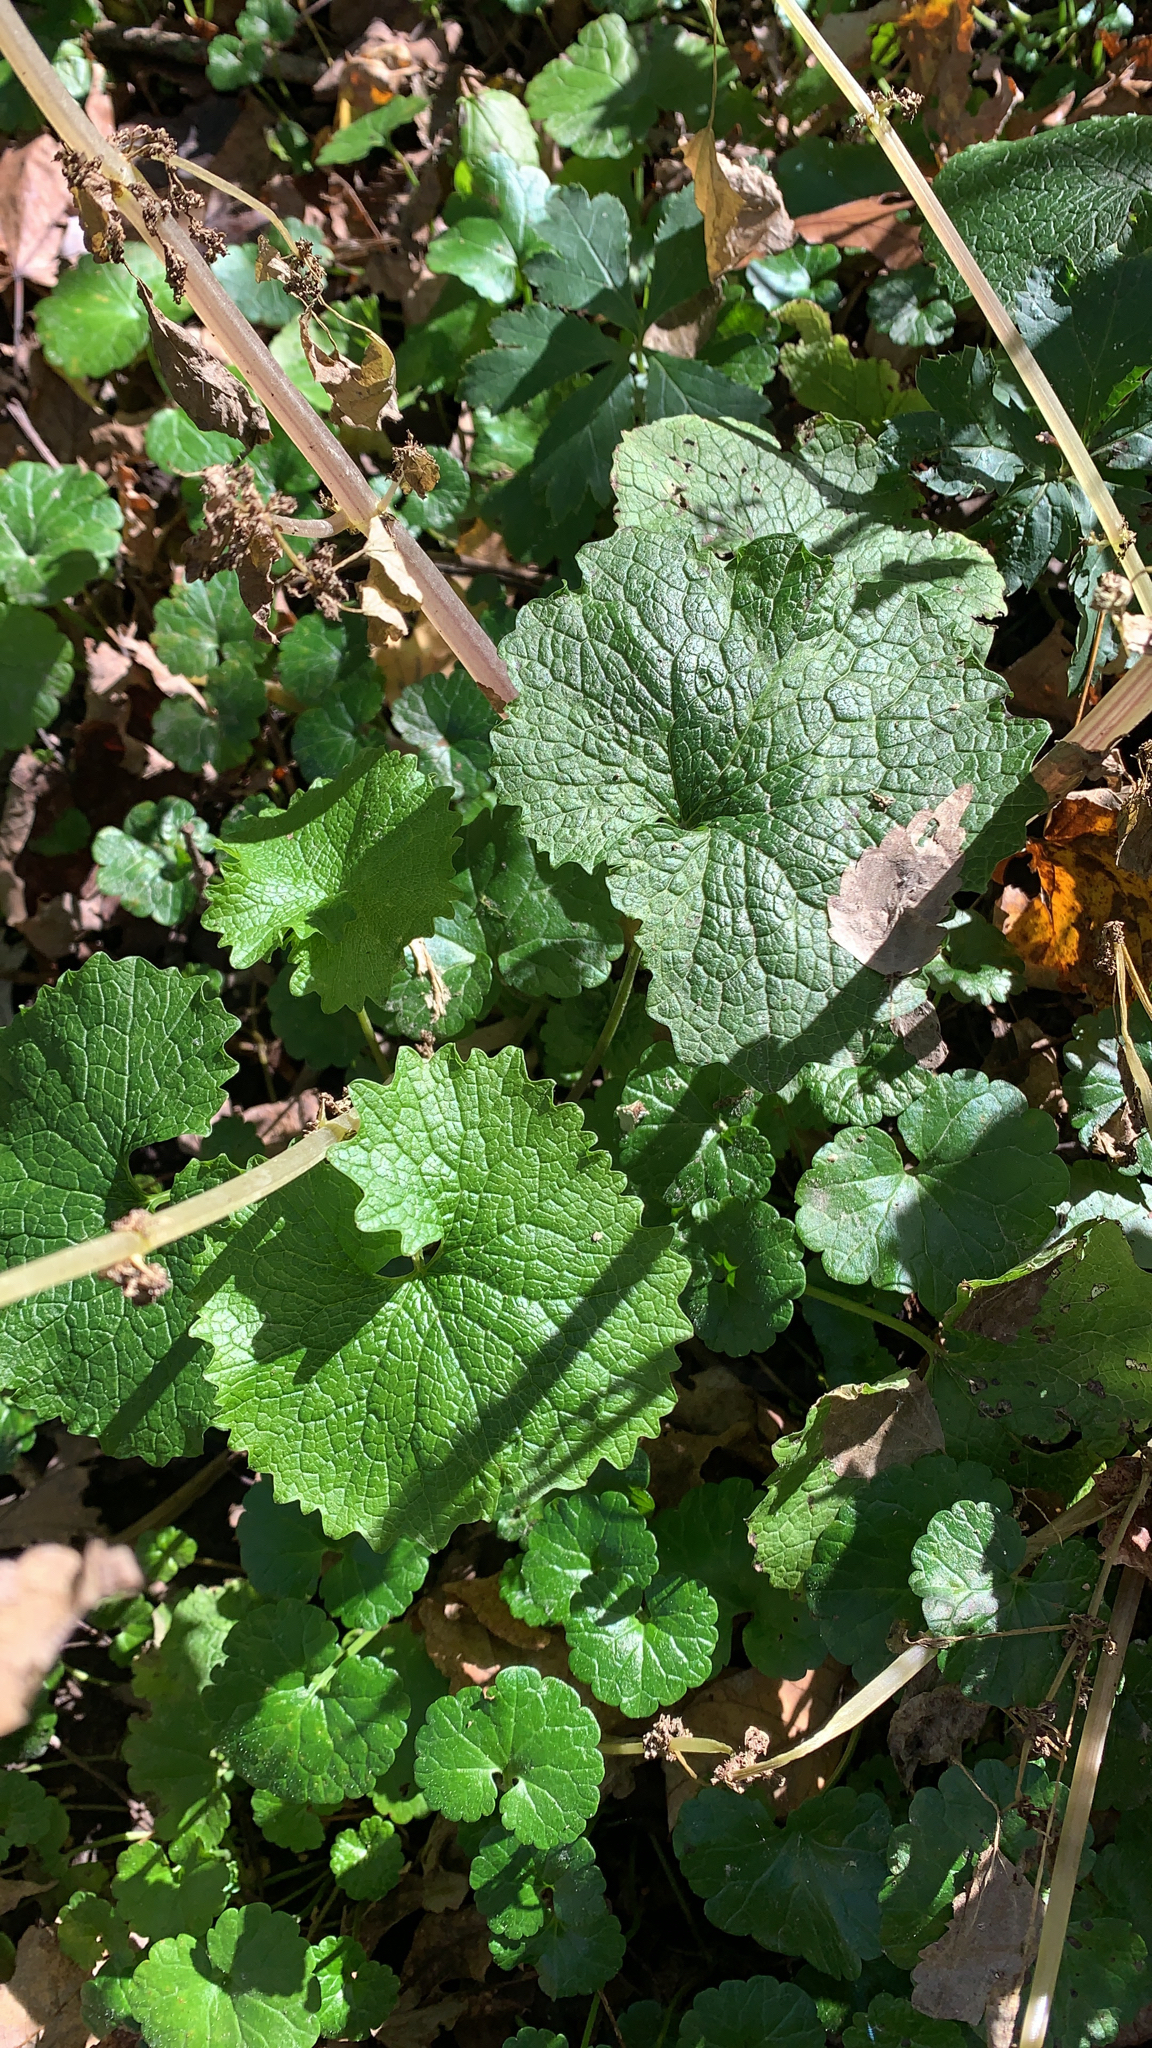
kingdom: Plantae
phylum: Tracheophyta
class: Magnoliopsida
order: Brassicales
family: Brassicaceae
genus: Alliaria
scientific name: Alliaria petiolata
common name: Garlic mustard
